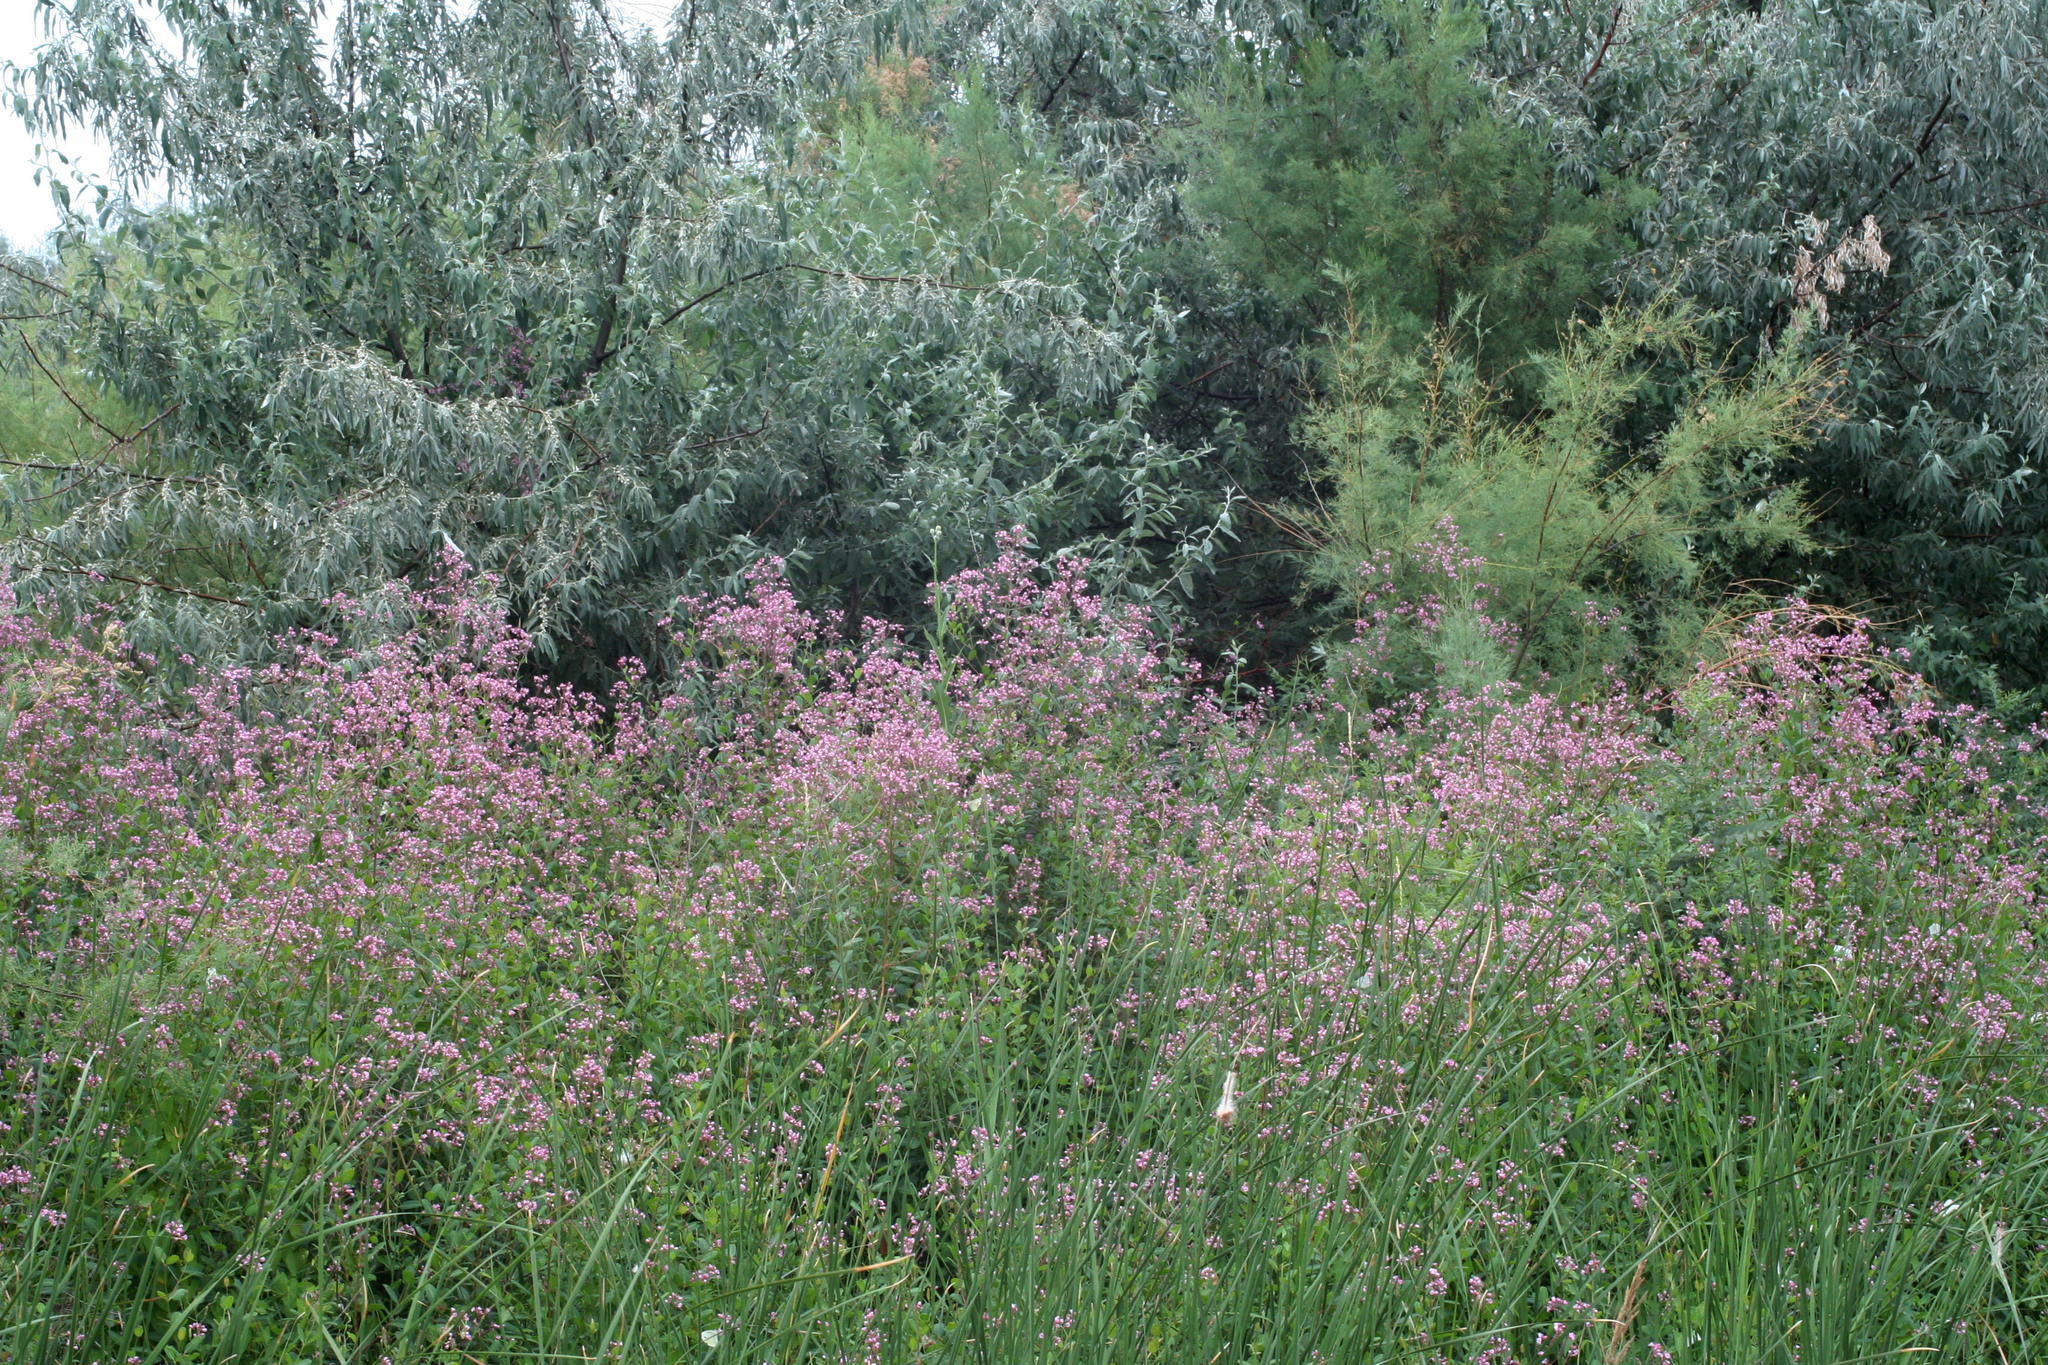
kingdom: Plantae
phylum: Tracheophyta
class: Magnoliopsida
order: Gentianales
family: Apocynaceae
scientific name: Apocynaceae
